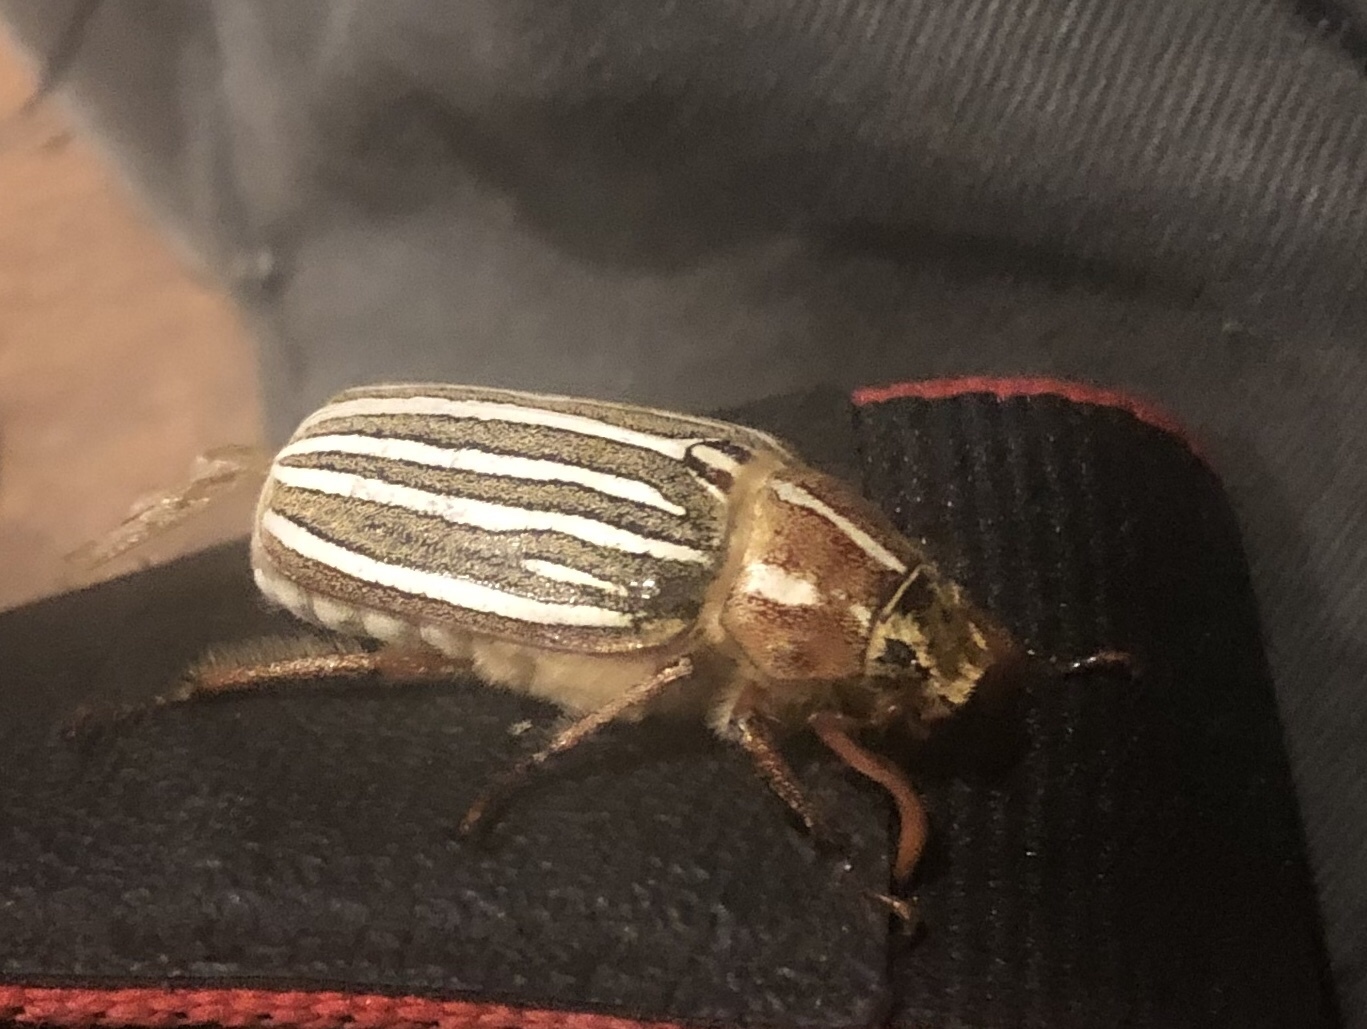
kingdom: Animalia
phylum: Arthropoda
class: Insecta
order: Coleoptera
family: Scarabaeidae
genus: Polyphylla
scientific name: Polyphylla decemlineata
